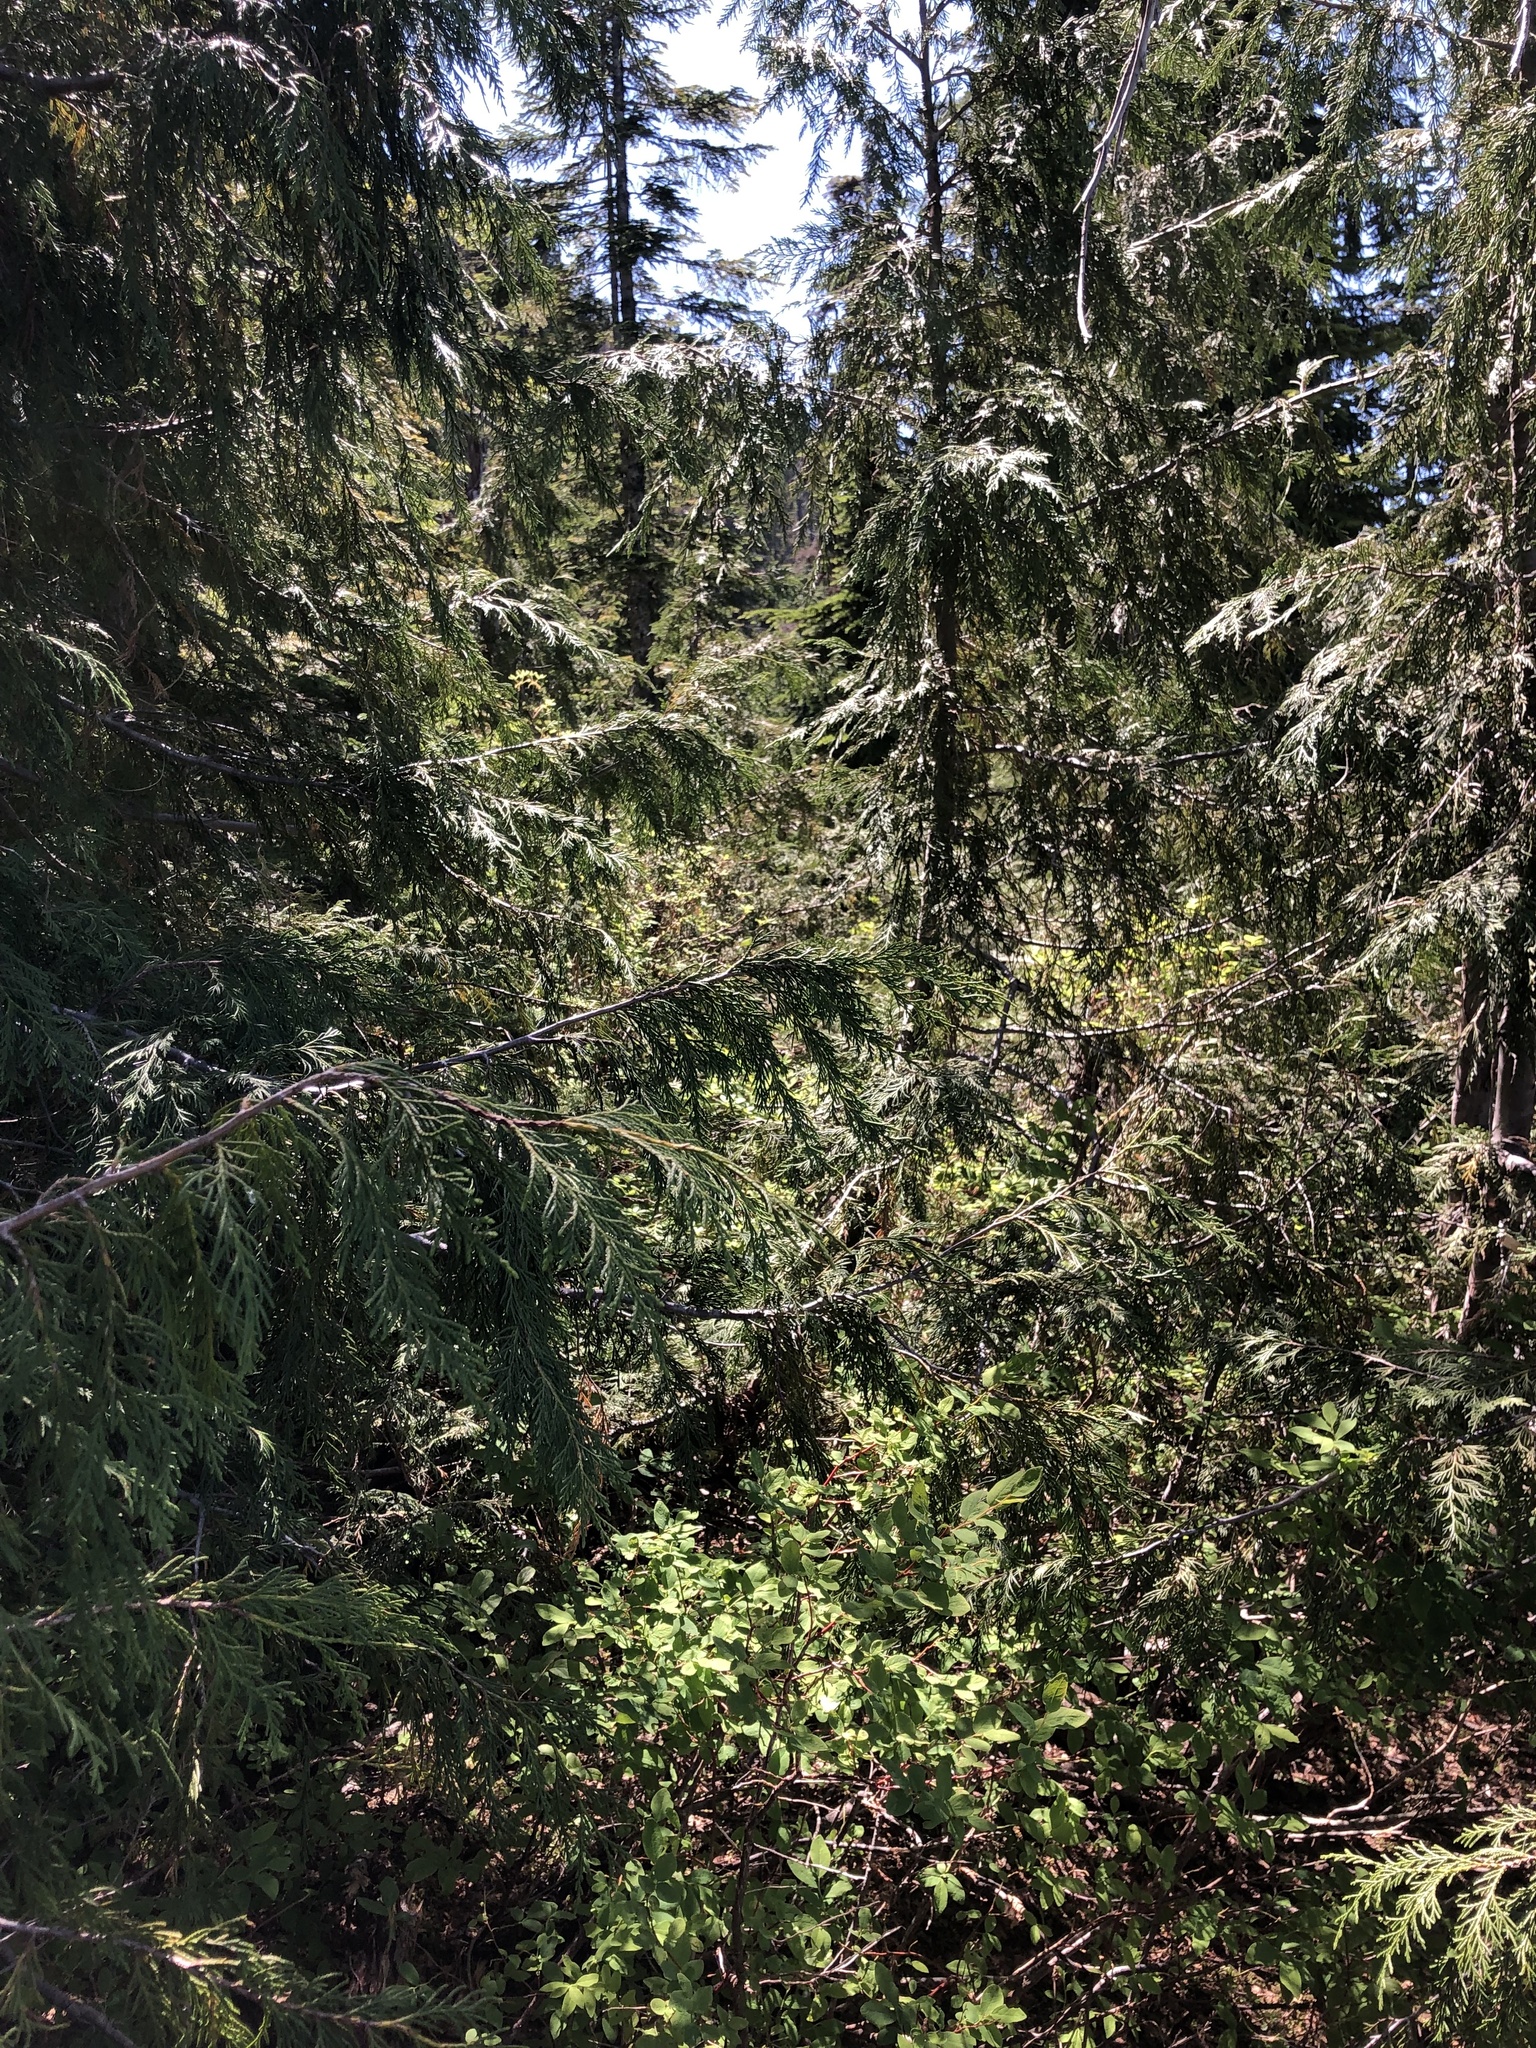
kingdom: Plantae
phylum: Tracheophyta
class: Pinopsida
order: Pinales
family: Cupressaceae
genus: Xanthocyparis
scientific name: Xanthocyparis nootkatensis
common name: Nootka cypress
